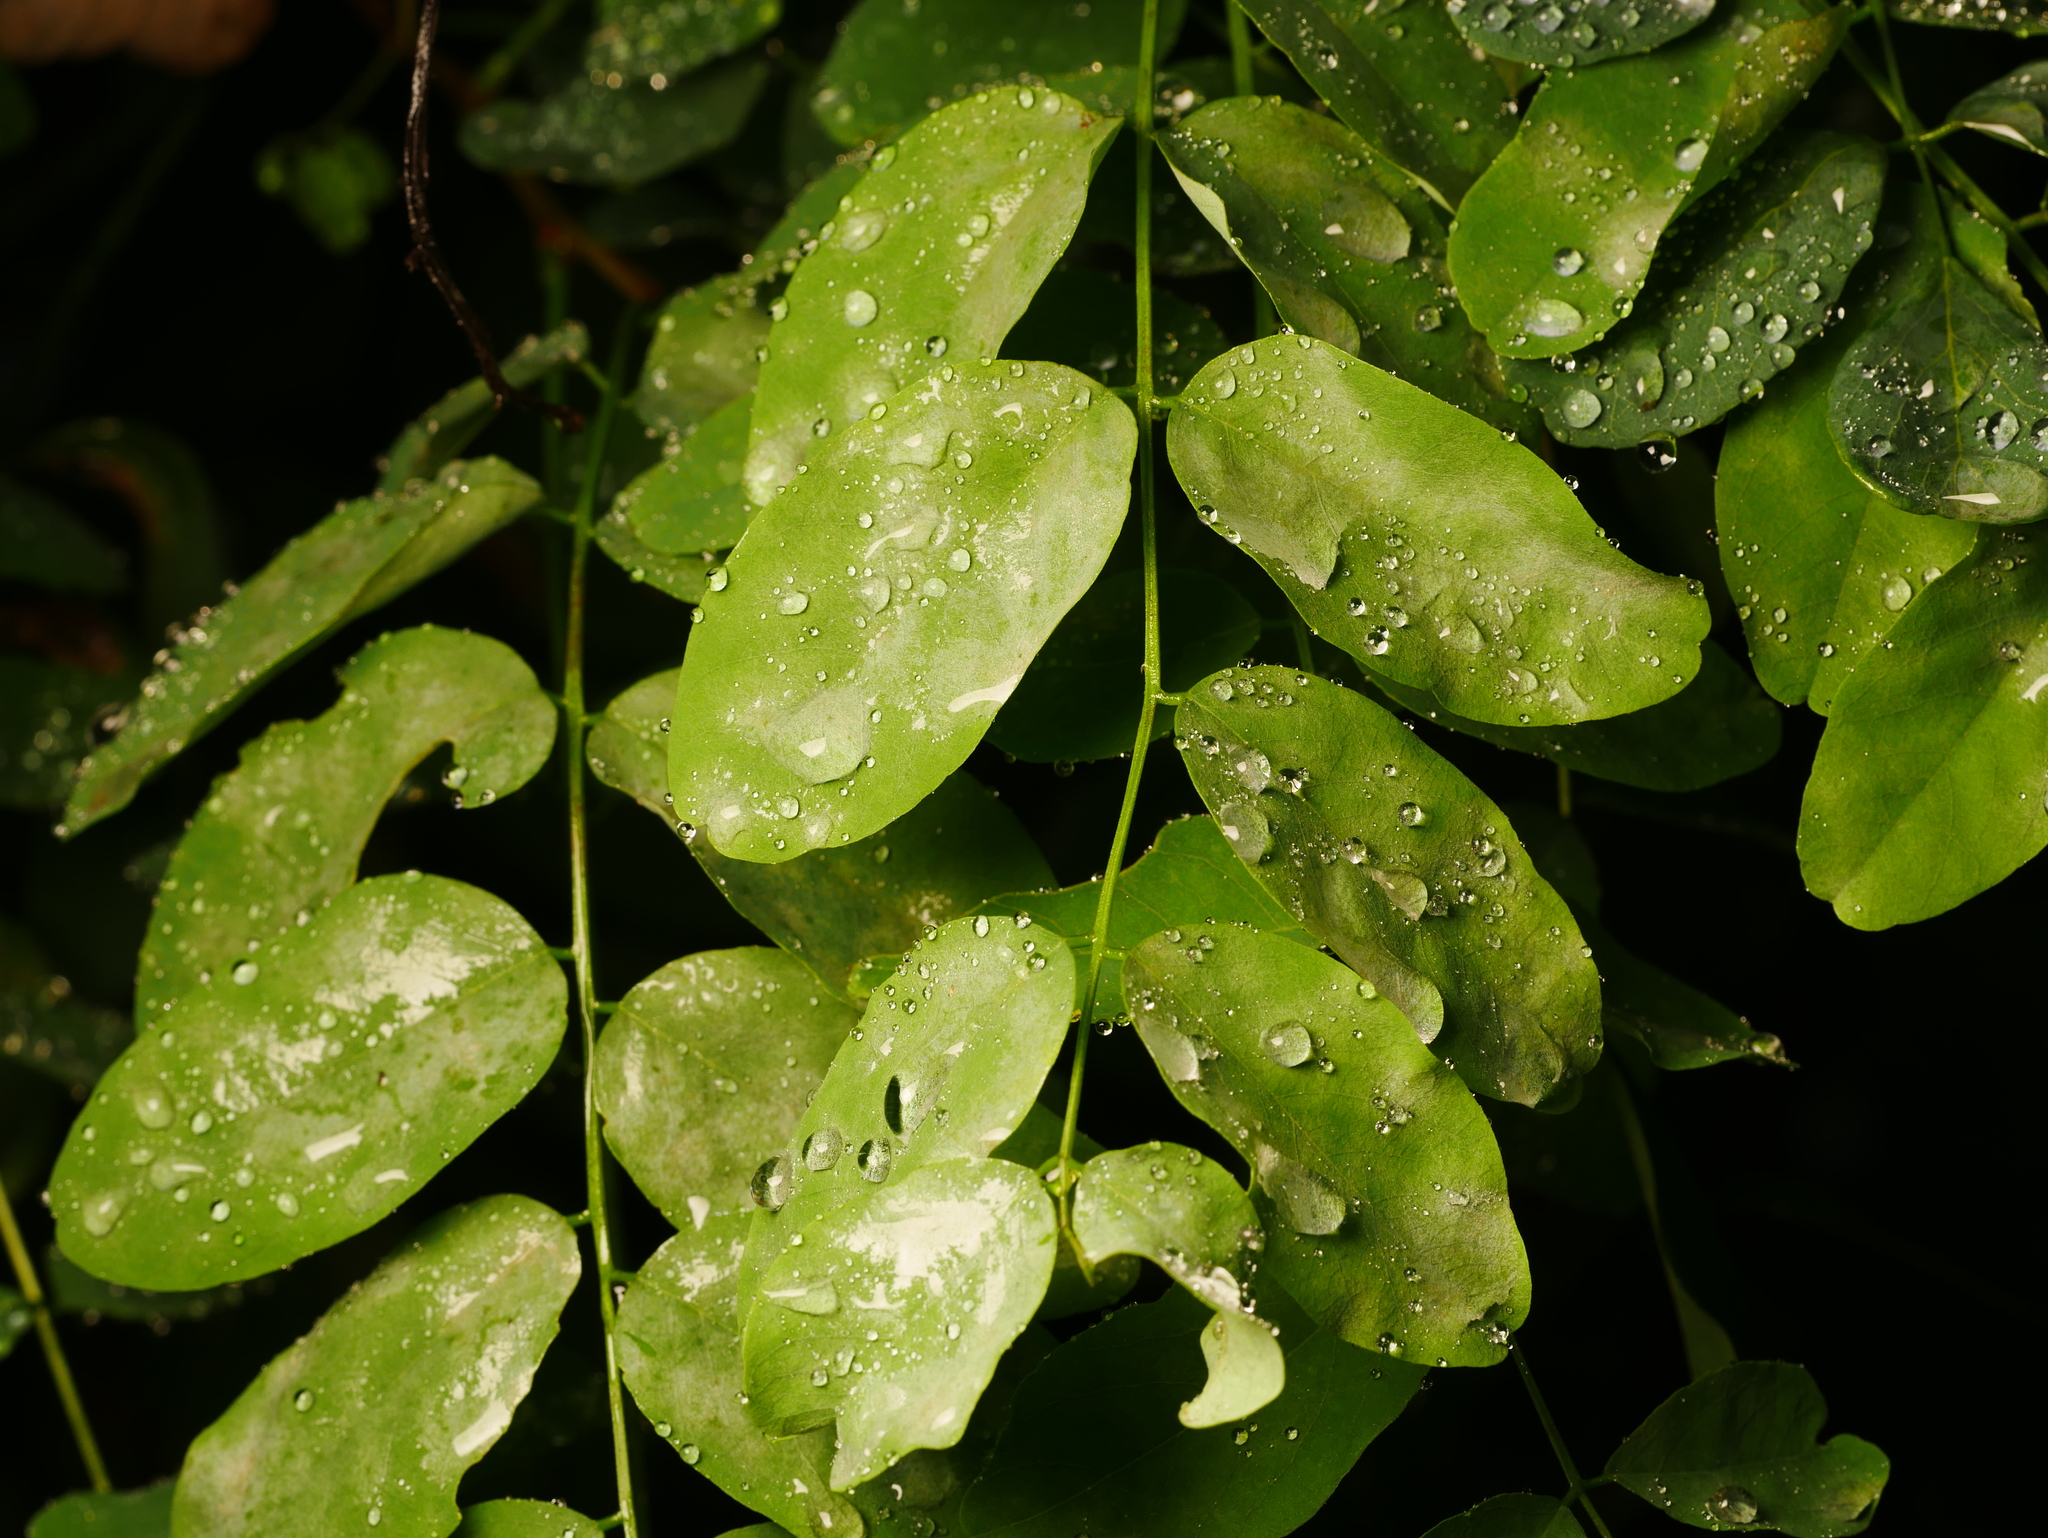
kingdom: Plantae
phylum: Tracheophyta
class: Magnoliopsida
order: Fabales
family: Fabaceae
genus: Robinia
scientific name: Robinia pseudoacacia
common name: Black locust
